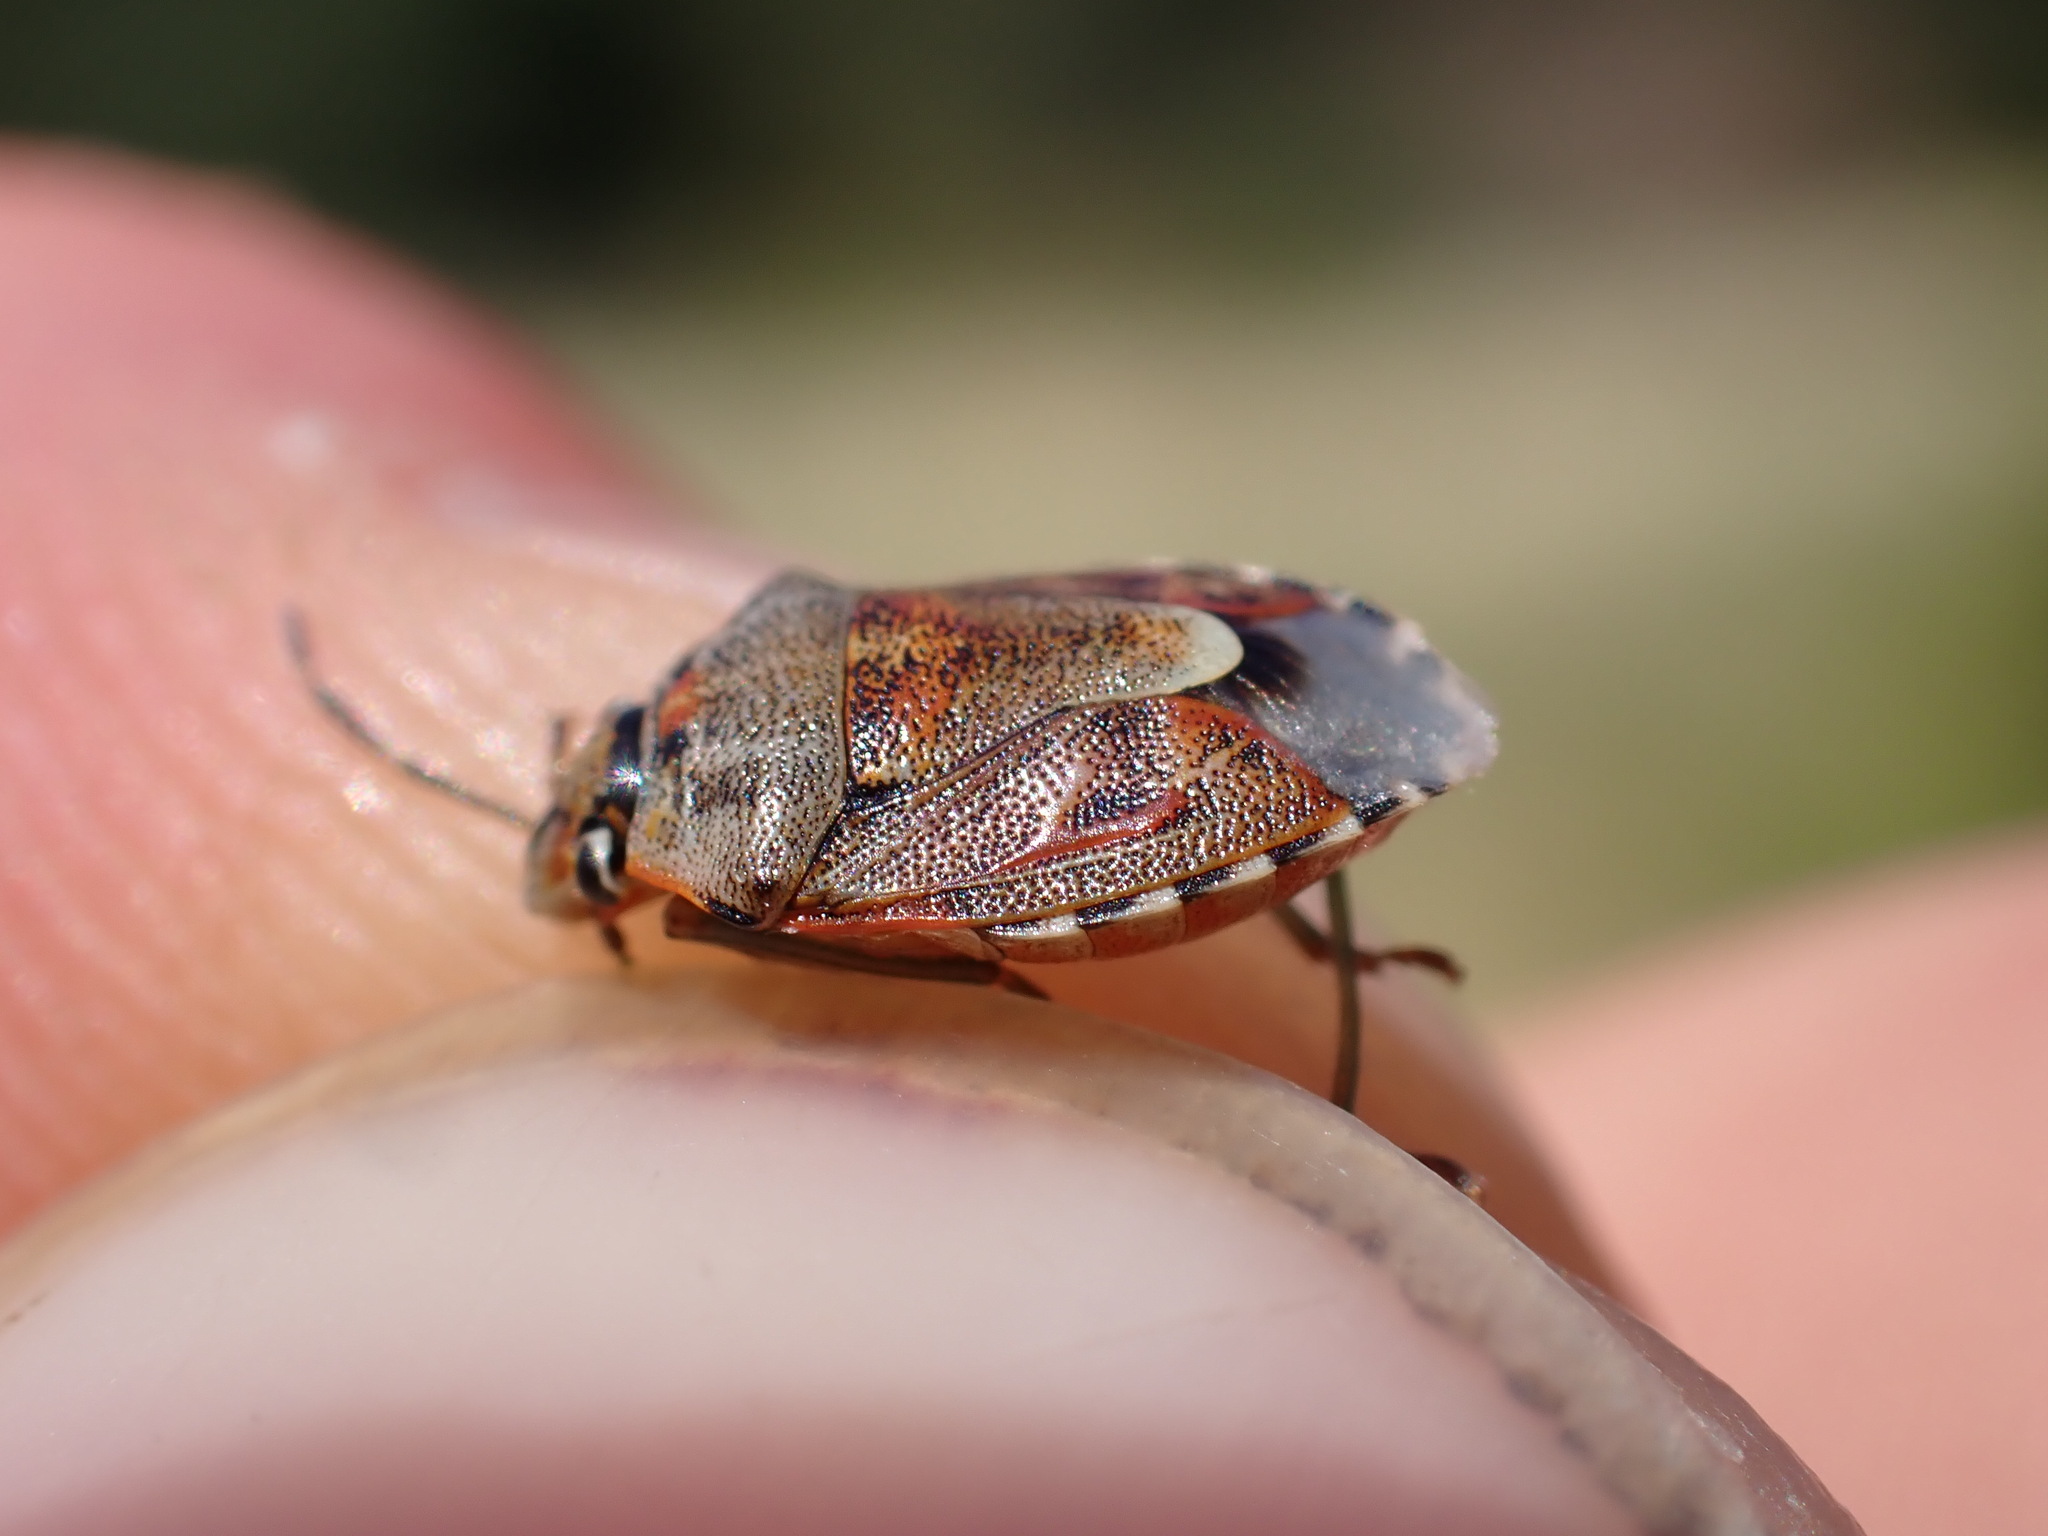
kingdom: Animalia
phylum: Arthropoda
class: Insecta
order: Hemiptera
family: Pentatomidae
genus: Holcogaster
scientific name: Holcogaster fibulata
